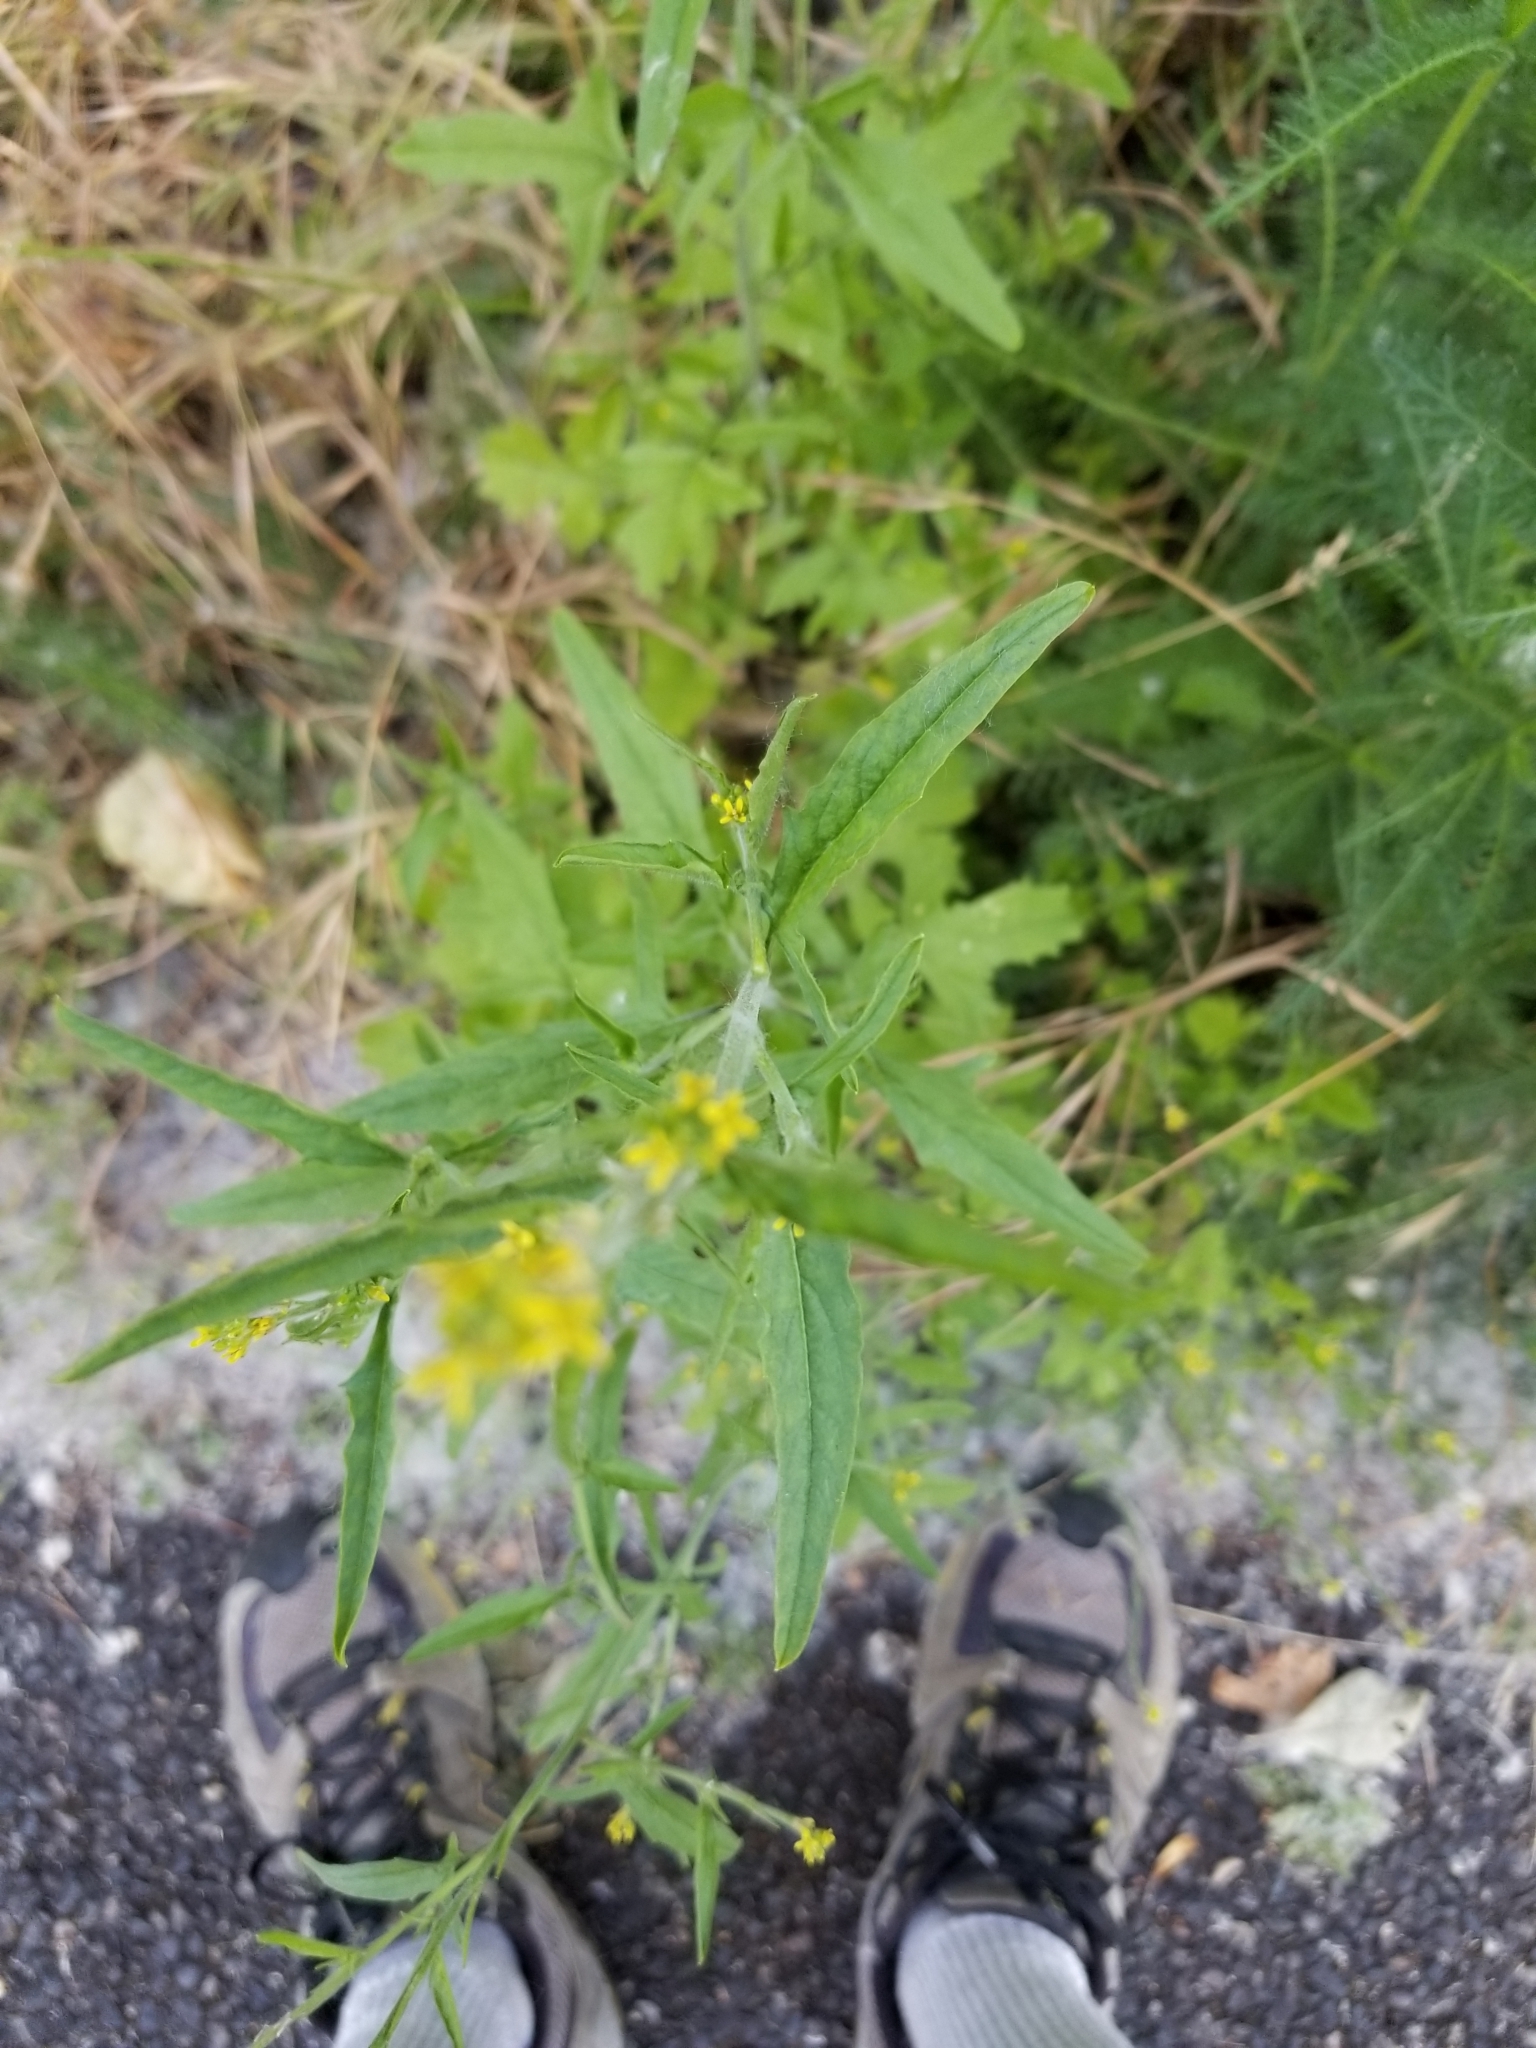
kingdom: Plantae
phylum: Tracheophyta
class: Magnoliopsida
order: Brassicales
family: Brassicaceae
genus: Sisymbrium
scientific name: Sisymbrium officinale
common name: Hedge mustard
